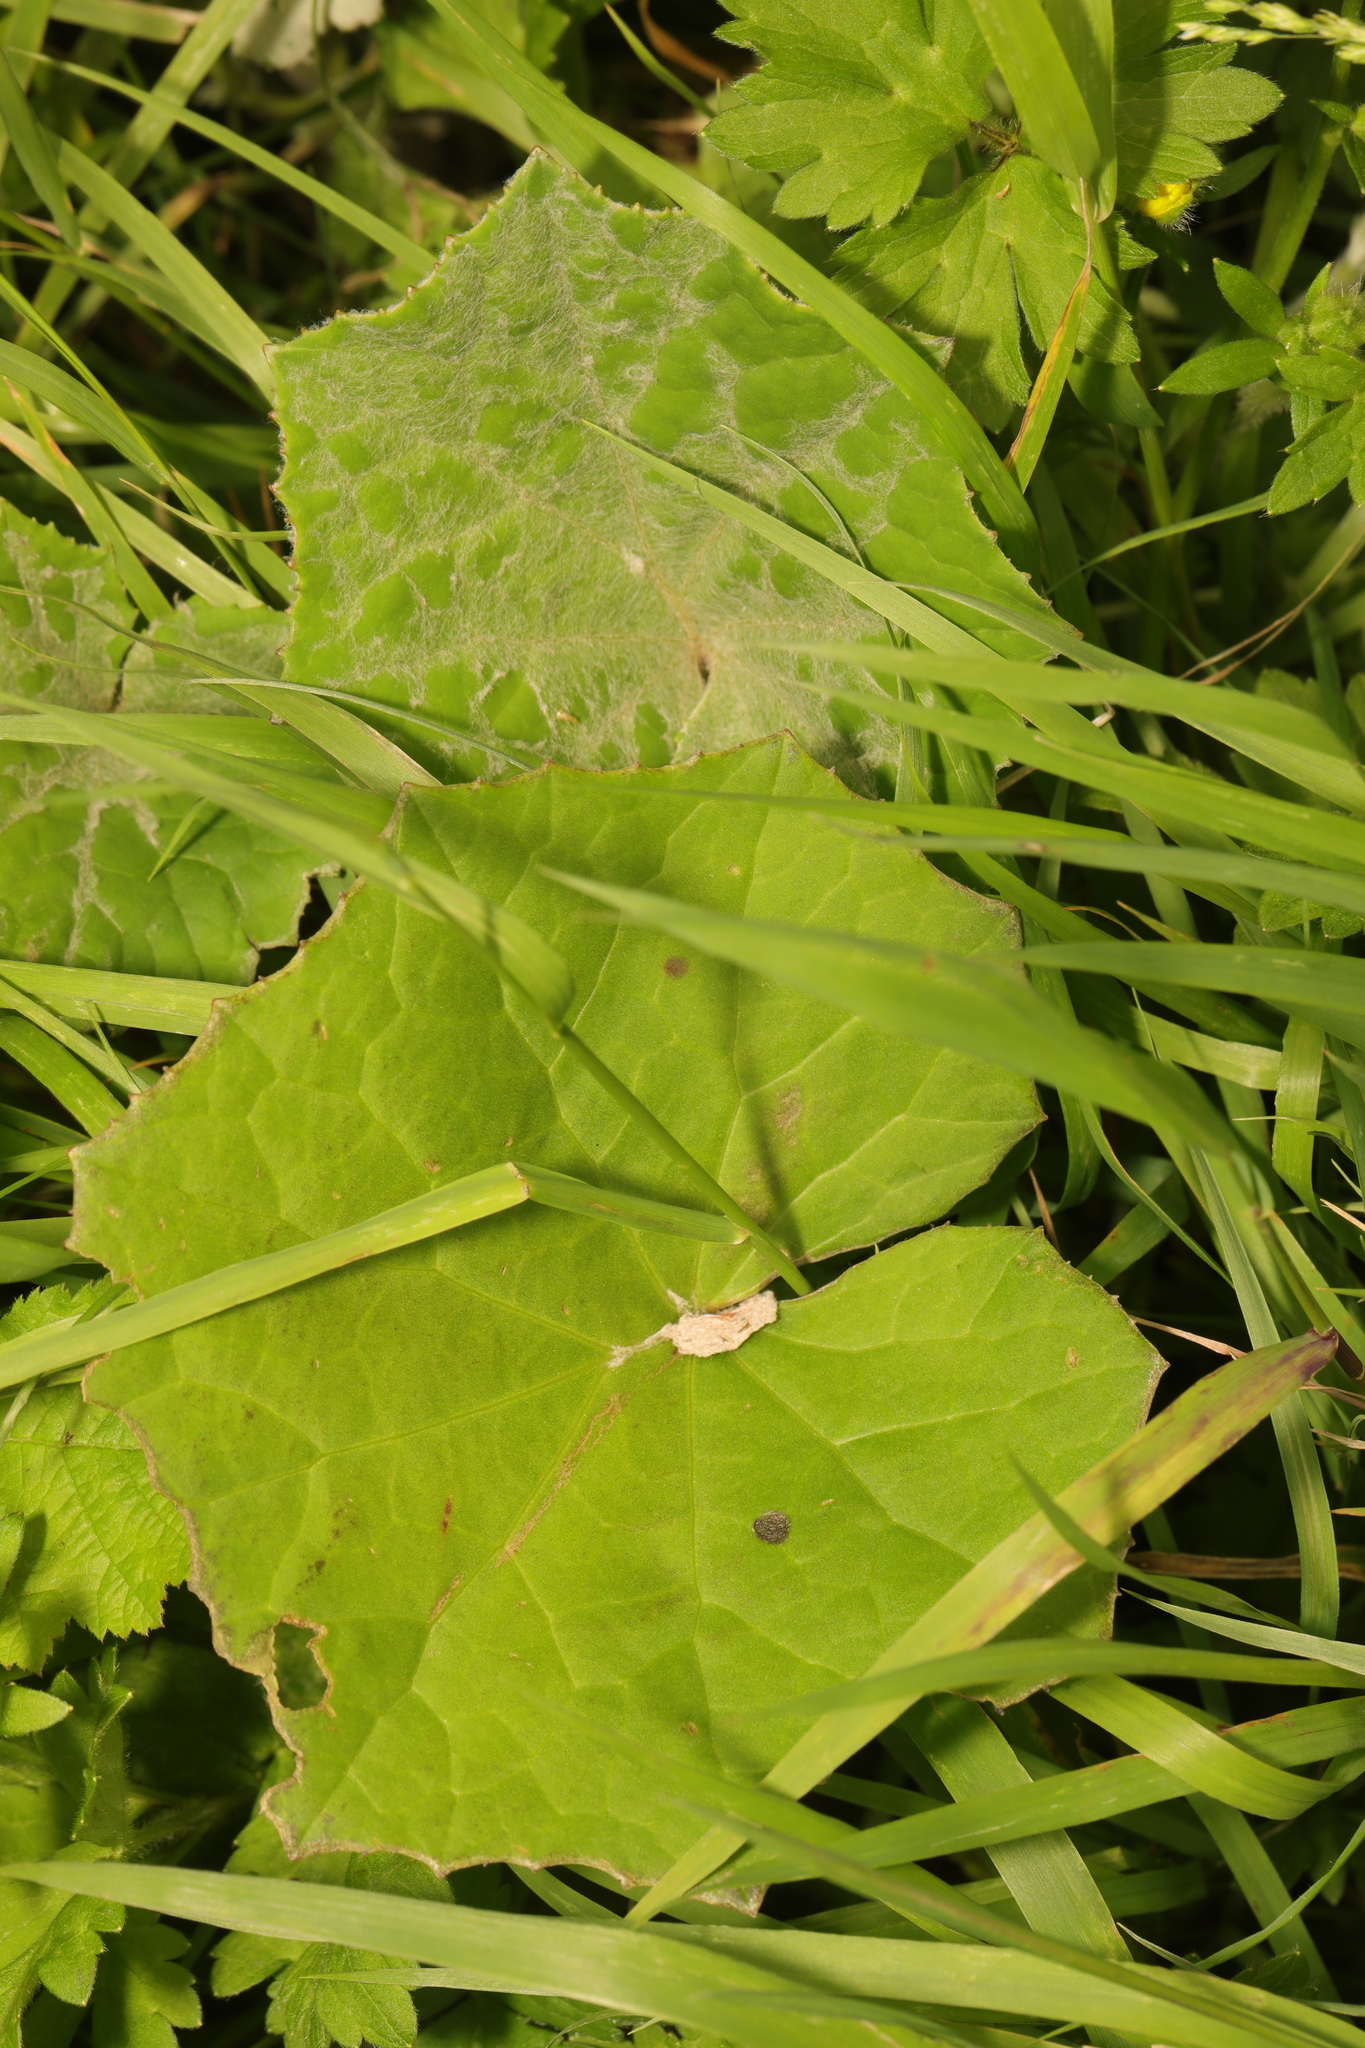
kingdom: Plantae
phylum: Tracheophyta
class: Magnoliopsida
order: Asterales
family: Asteraceae
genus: Tussilago
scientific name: Tussilago farfara
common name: Coltsfoot
